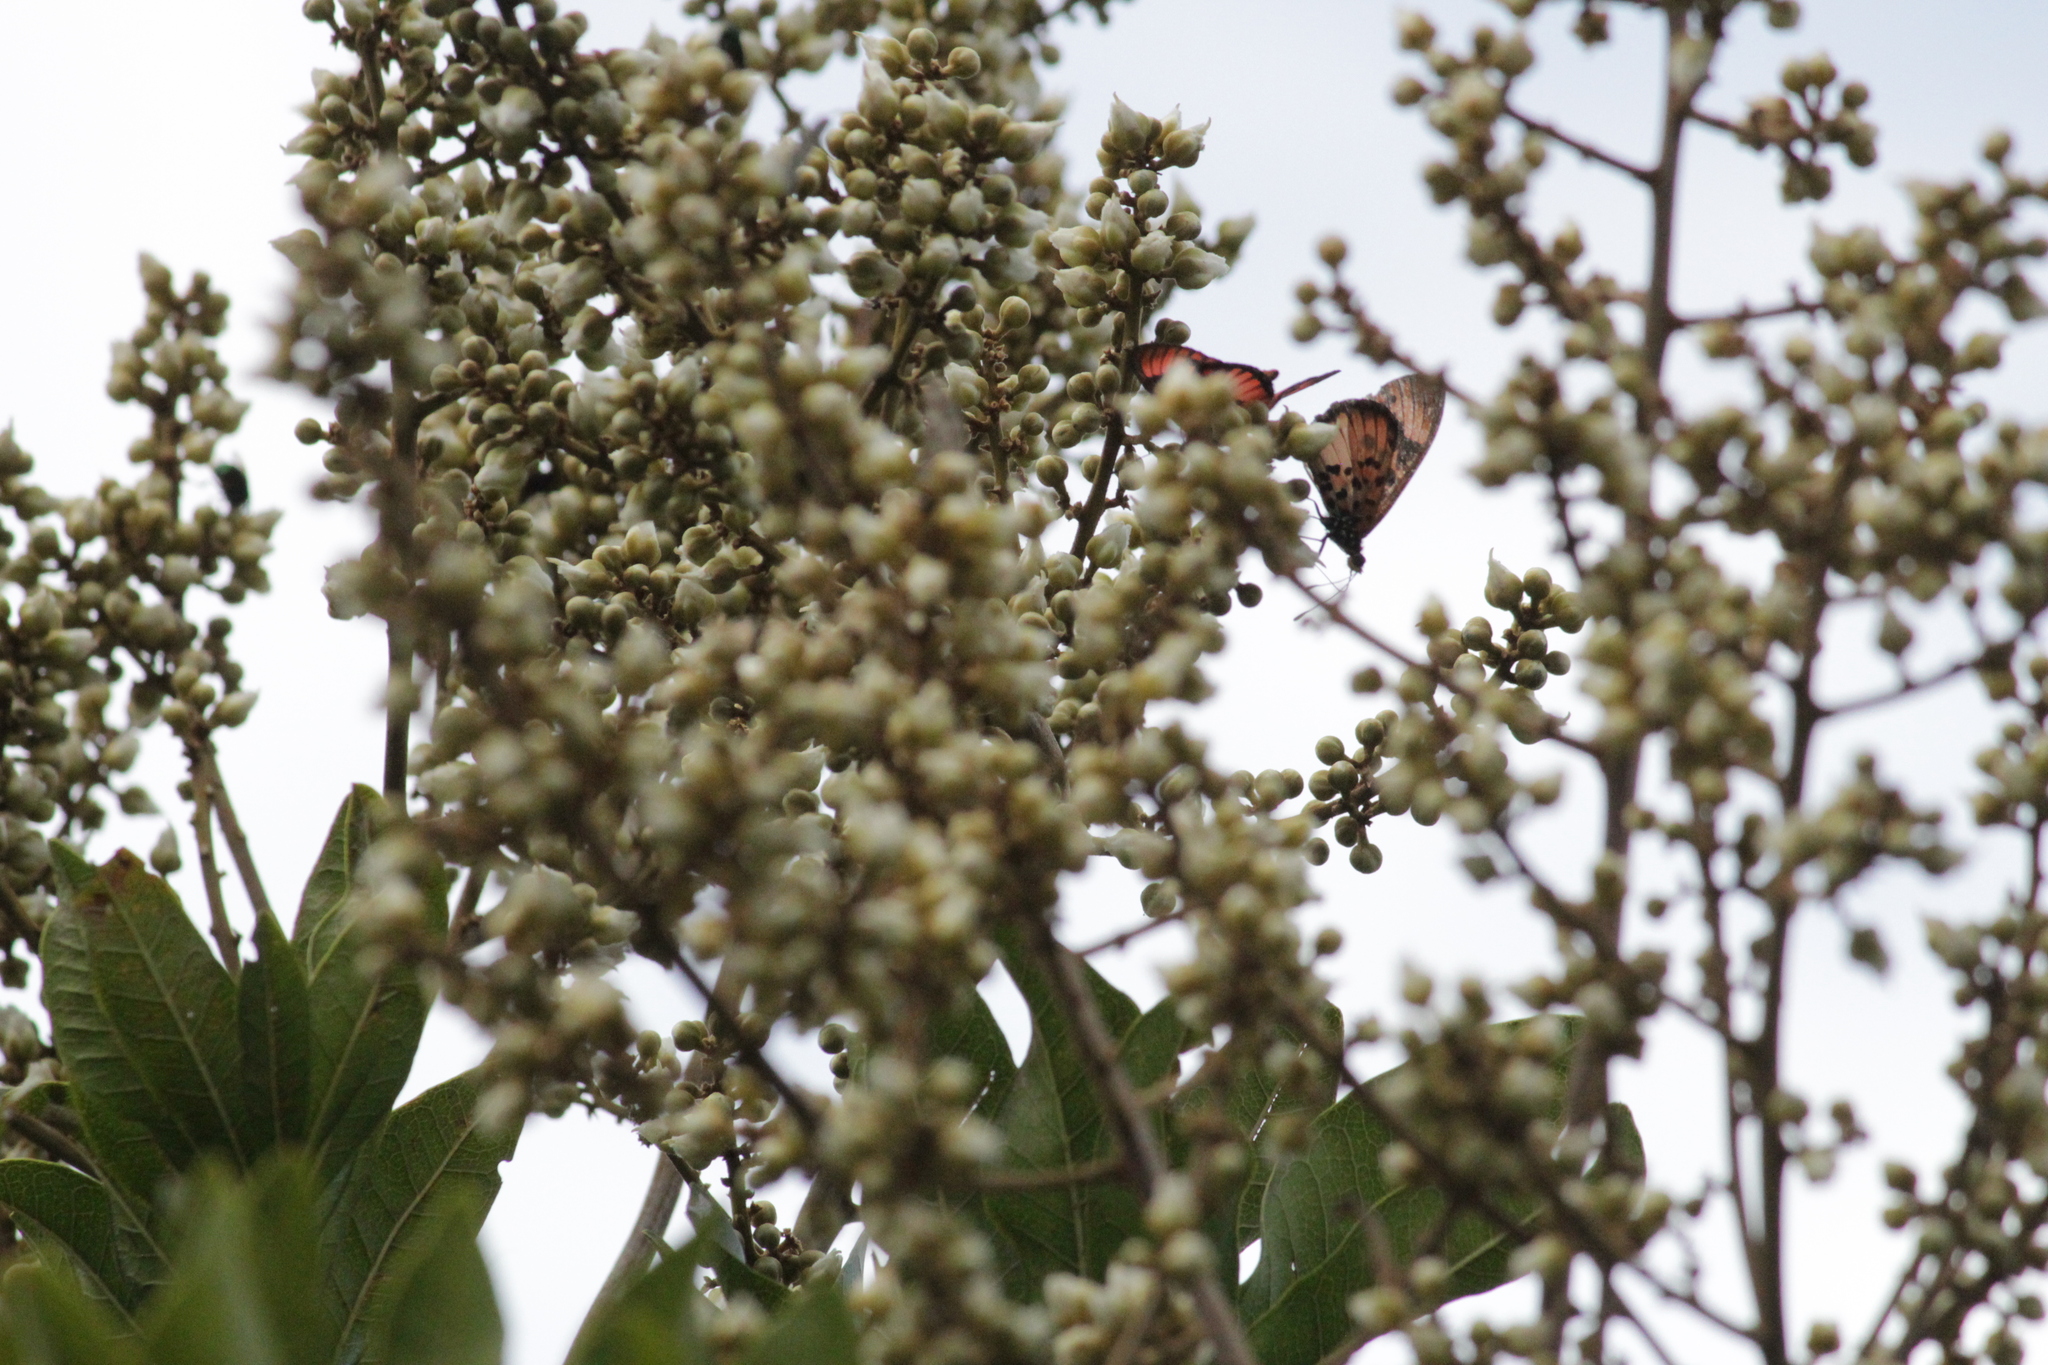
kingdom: Animalia
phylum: Arthropoda
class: Insecta
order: Lepidoptera
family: Nymphalidae
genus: Rubraea
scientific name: Rubraea
